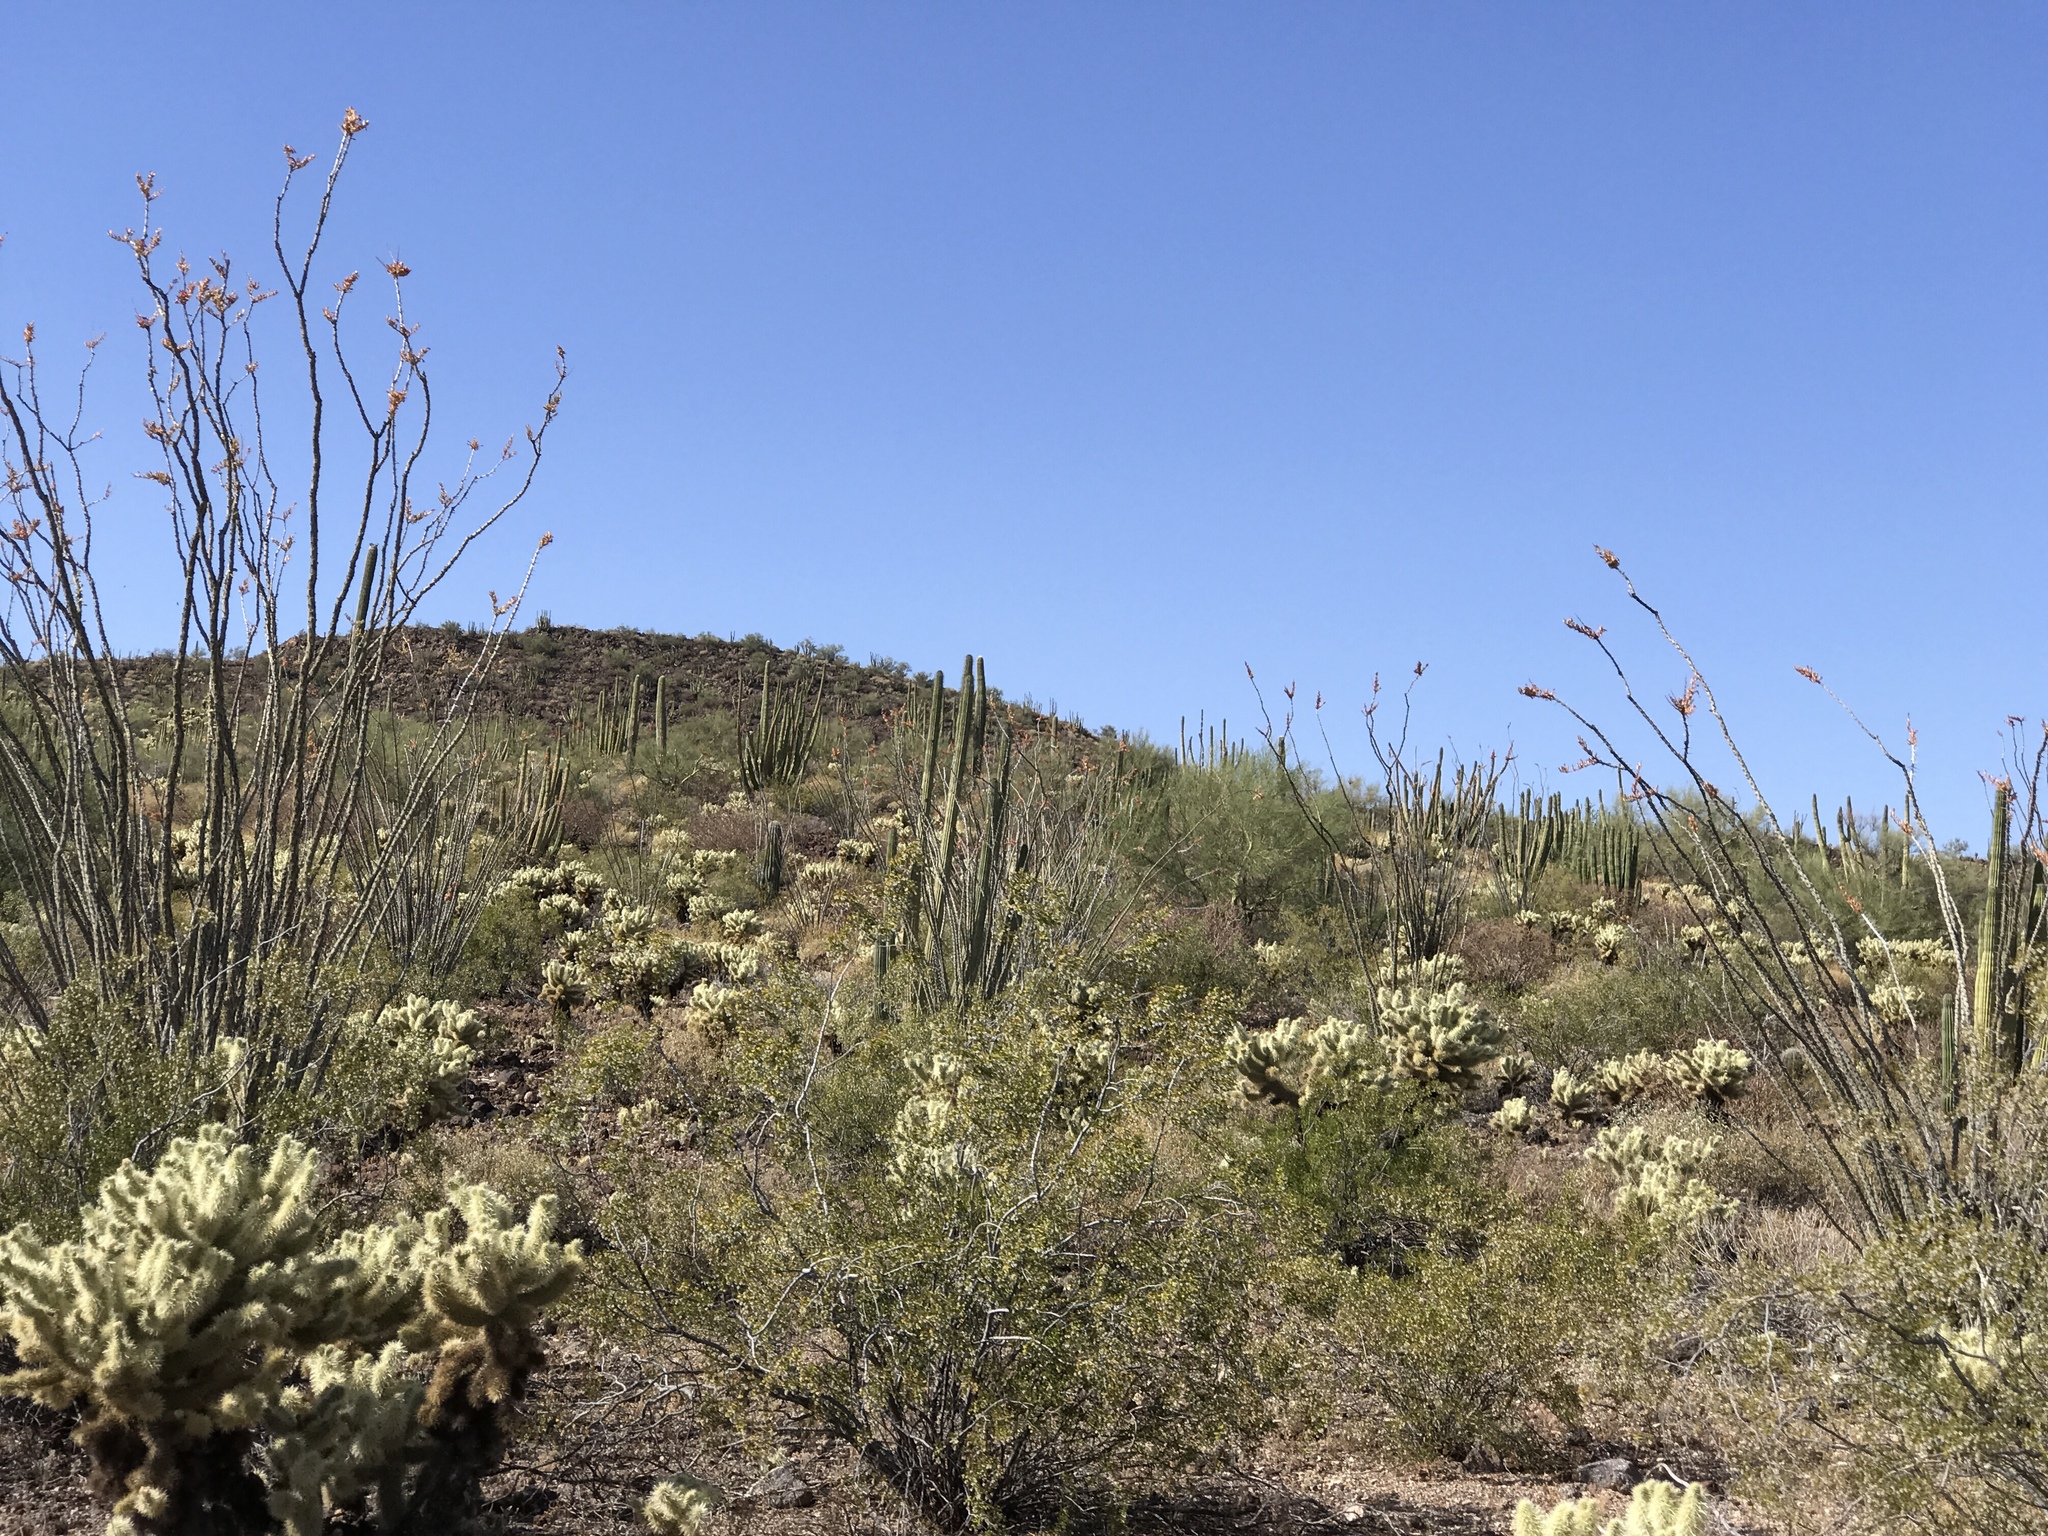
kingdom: Plantae
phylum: Tracheophyta
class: Magnoliopsida
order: Ericales
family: Fouquieriaceae
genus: Fouquieria
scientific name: Fouquieria splendens
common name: Vine-cactus
